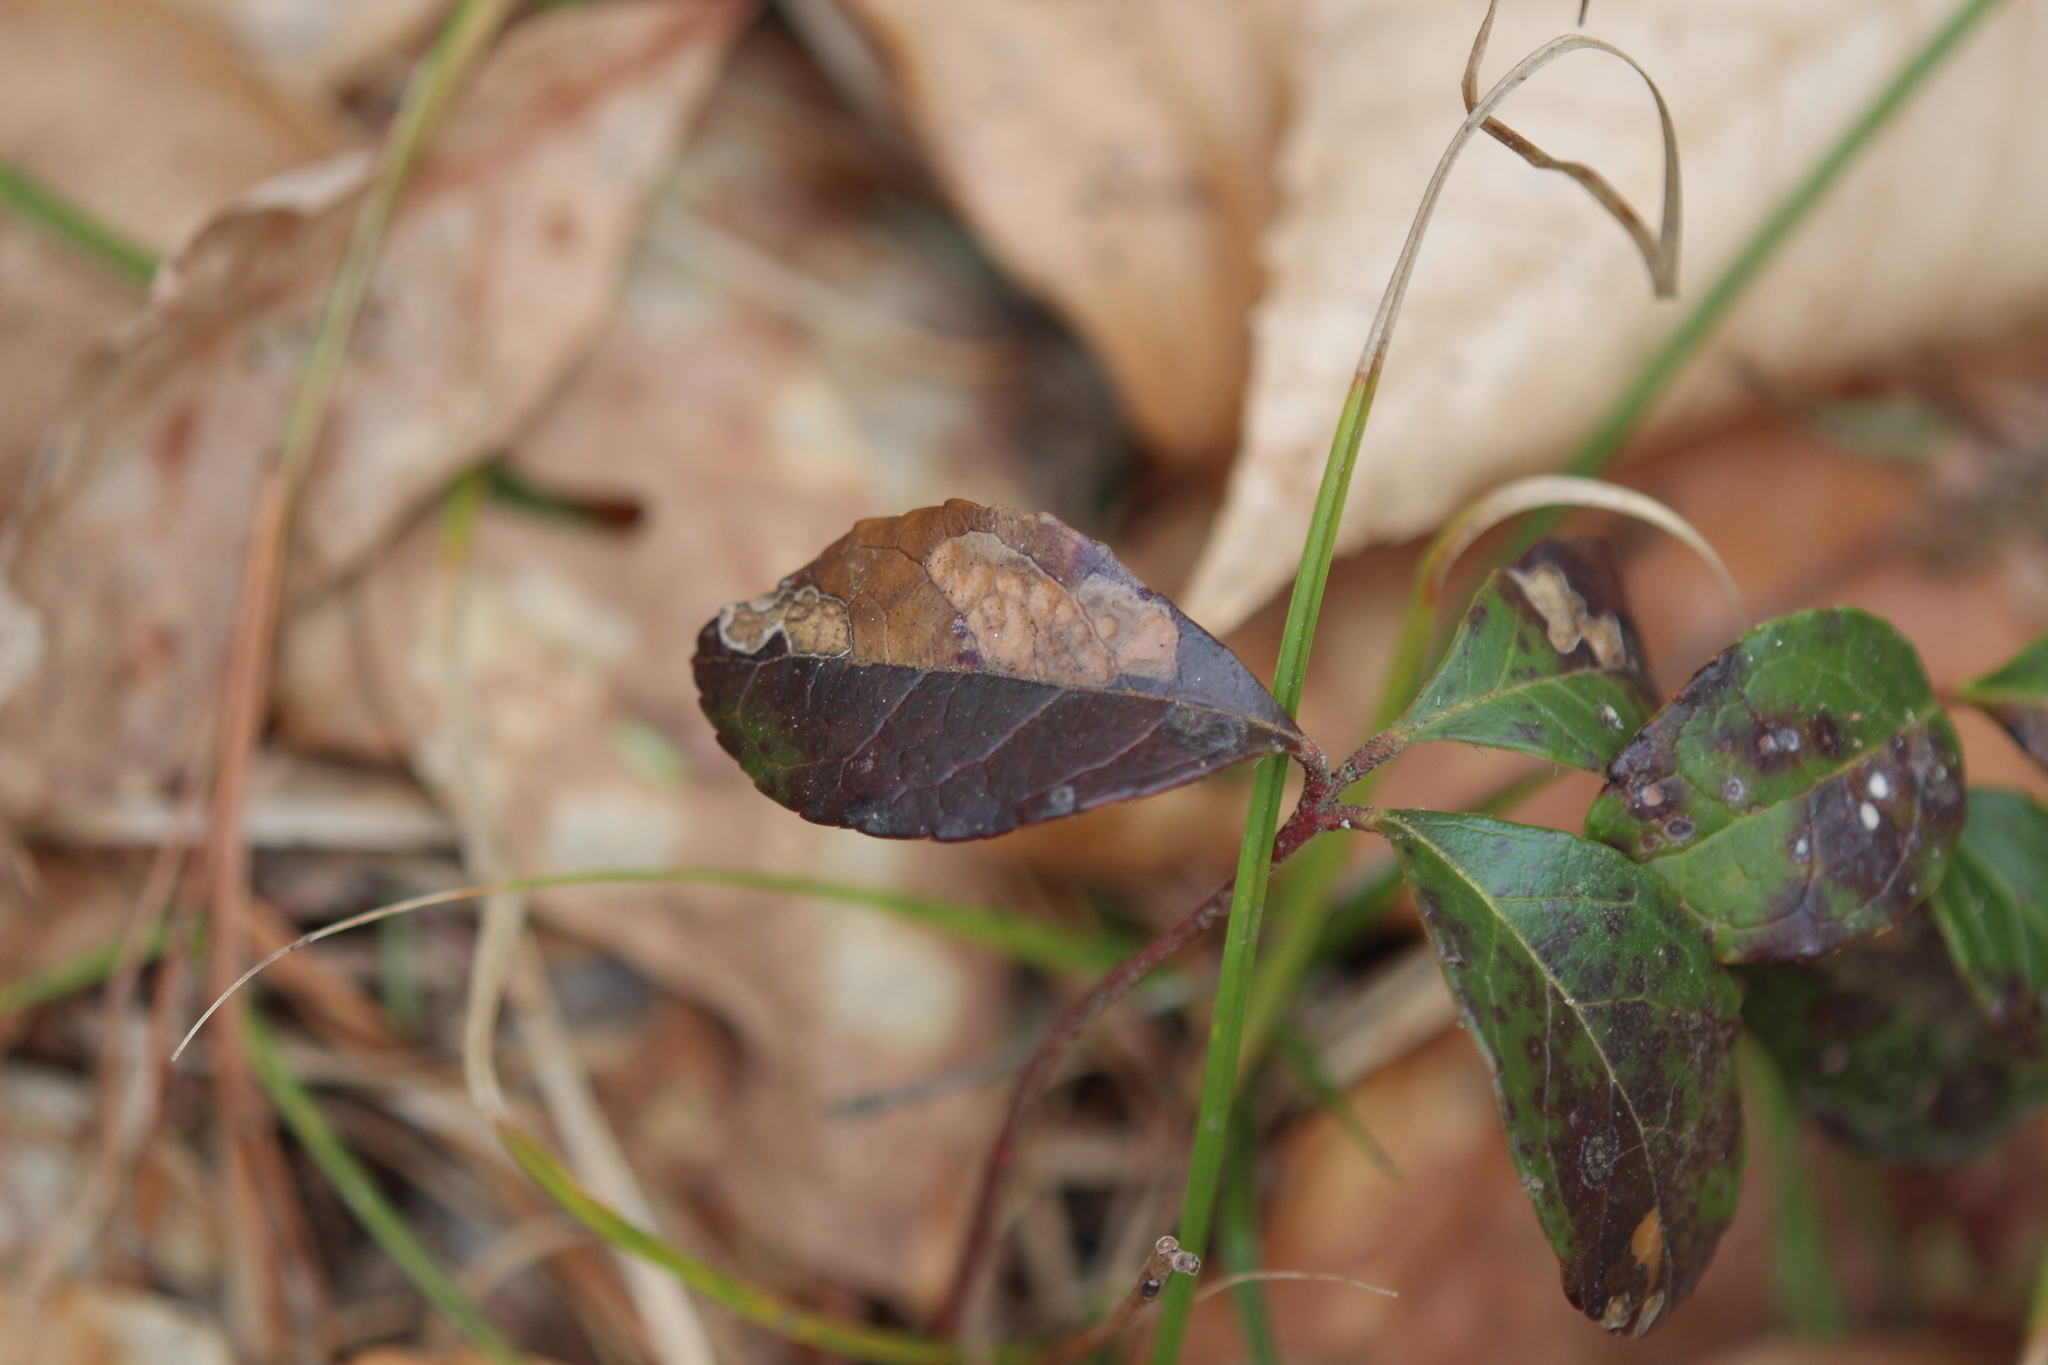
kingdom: Plantae
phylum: Tracheophyta
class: Magnoliopsida
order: Ericales
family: Ericaceae
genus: Gaultheria
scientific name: Gaultheria procumbens
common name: Checkerberry
